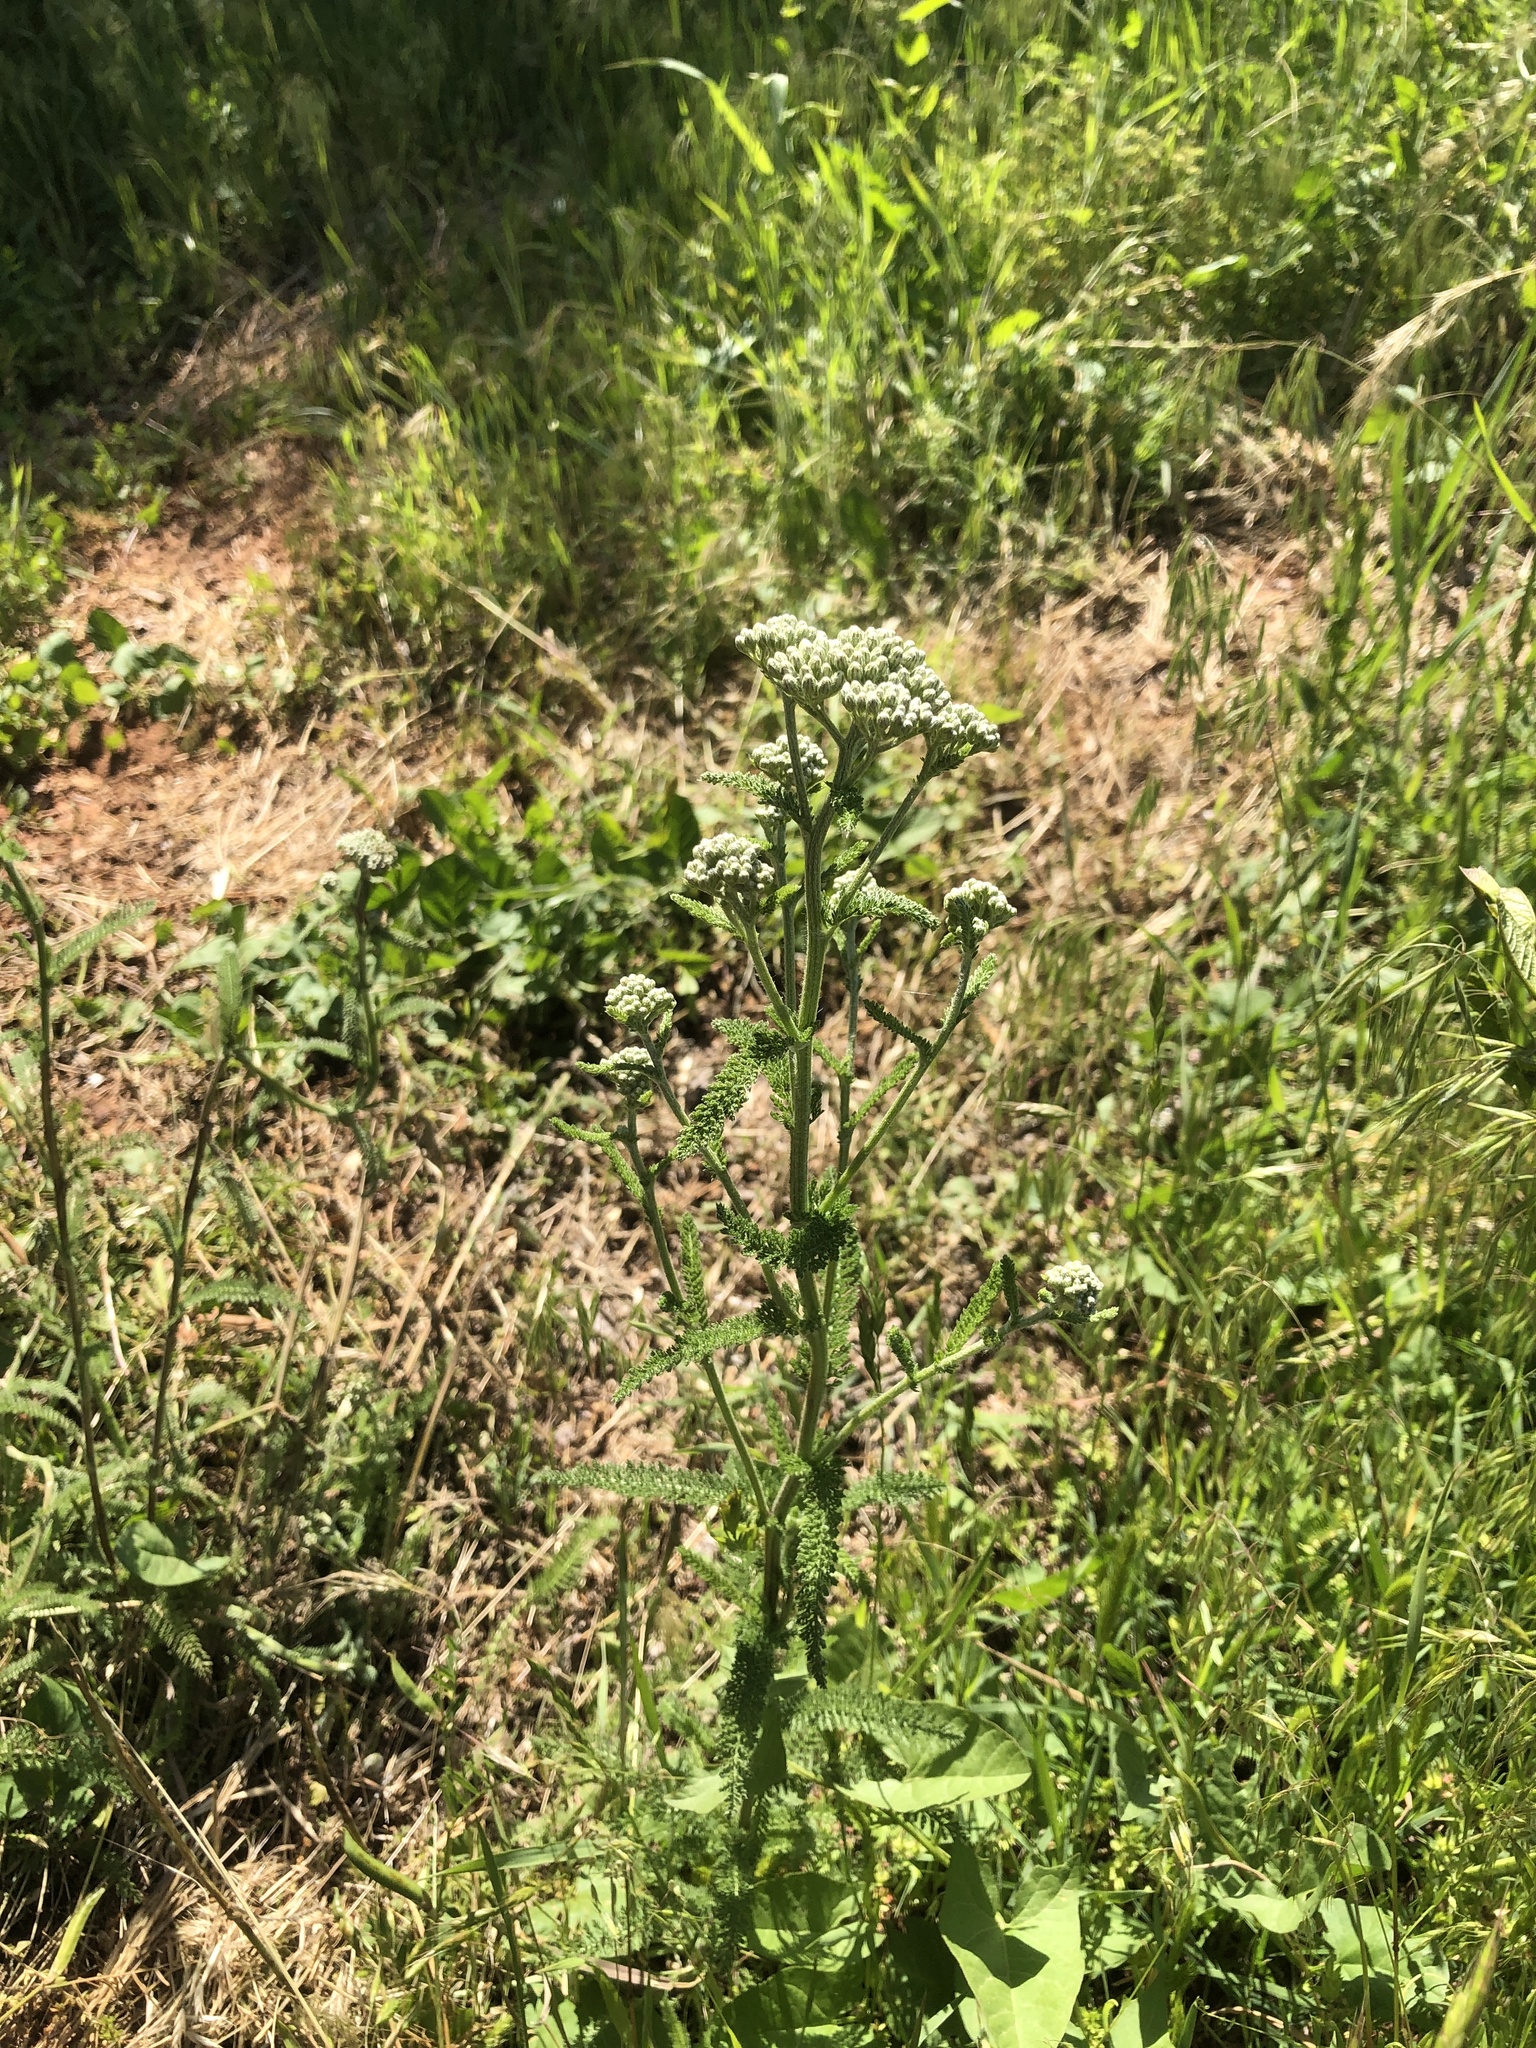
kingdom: Plantae
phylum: Tracheophyta
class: Magnoliopsida
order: Asterales
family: Asteraceae
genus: Achillea
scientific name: Achillea millefolium
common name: Yarrow
